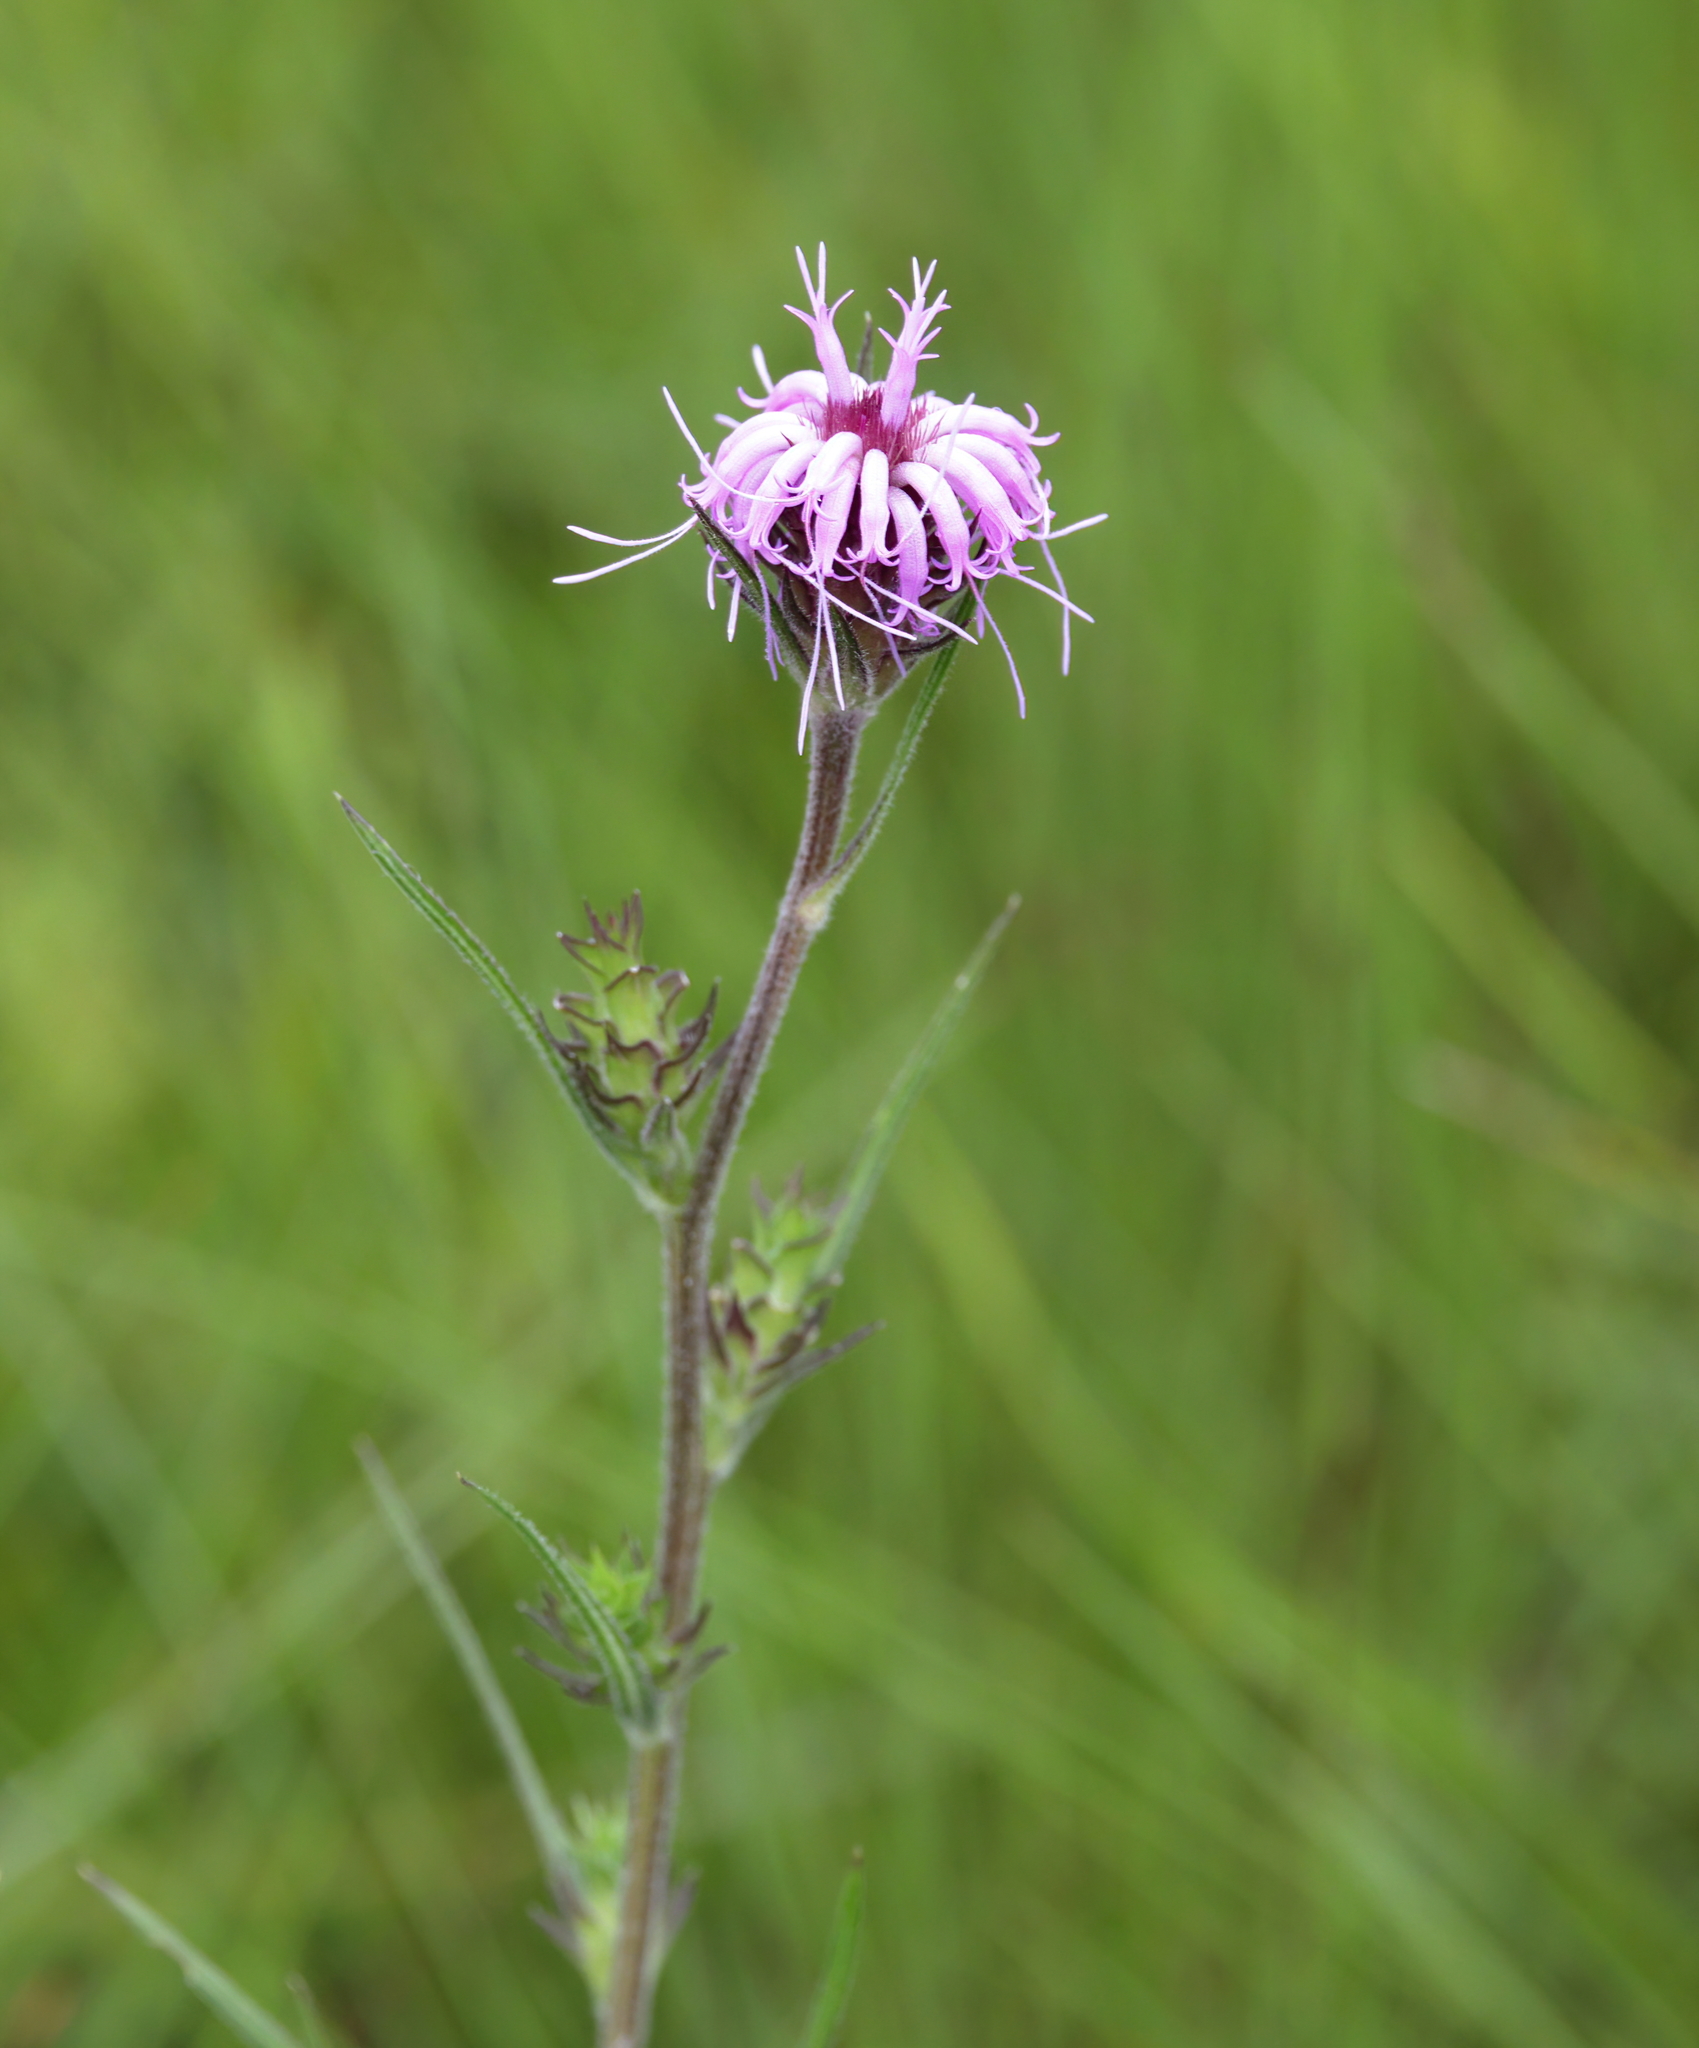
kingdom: Plantae
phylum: Tracheophyta
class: Magnoliopsida
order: Asterales
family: Asteraceae
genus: Liatris
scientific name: Liatris squarrosa
